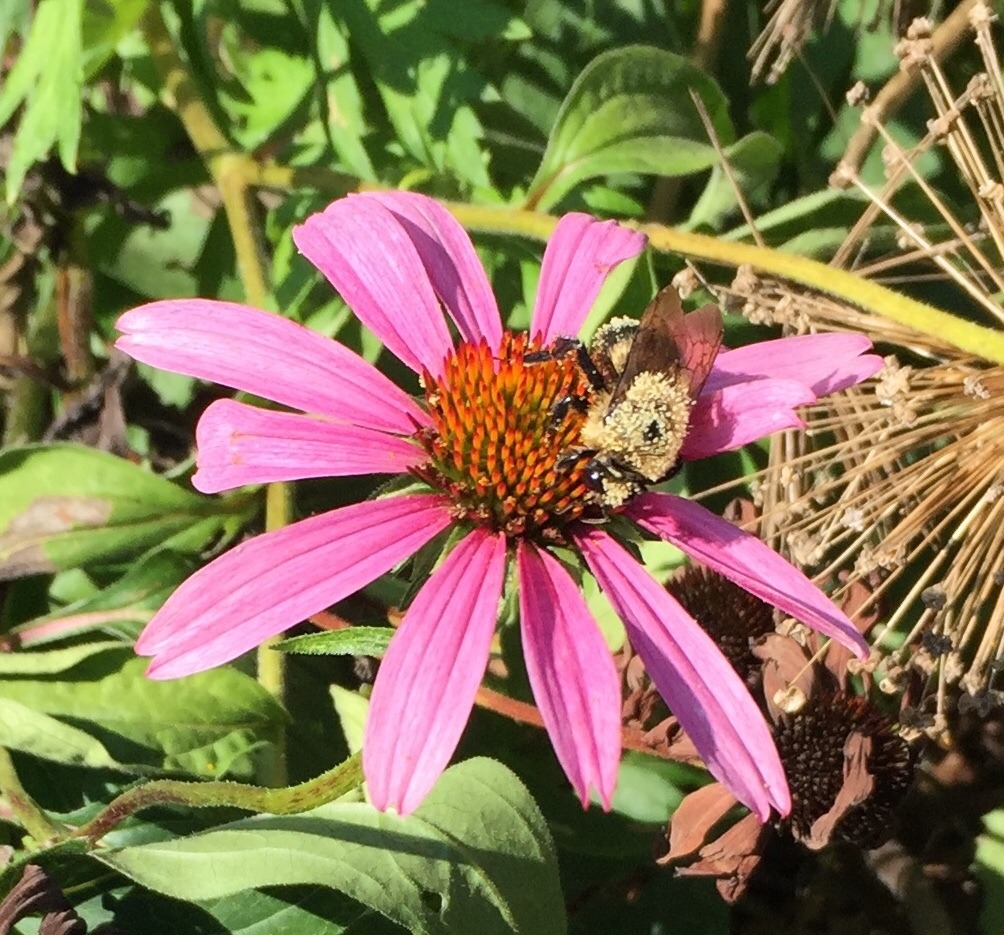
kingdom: Animalia
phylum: Arthropoda
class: Insecta
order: Hymenoptera
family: Apidae
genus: Bombus
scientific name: Bombus griseocollis
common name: Brown-belted bumble bee
